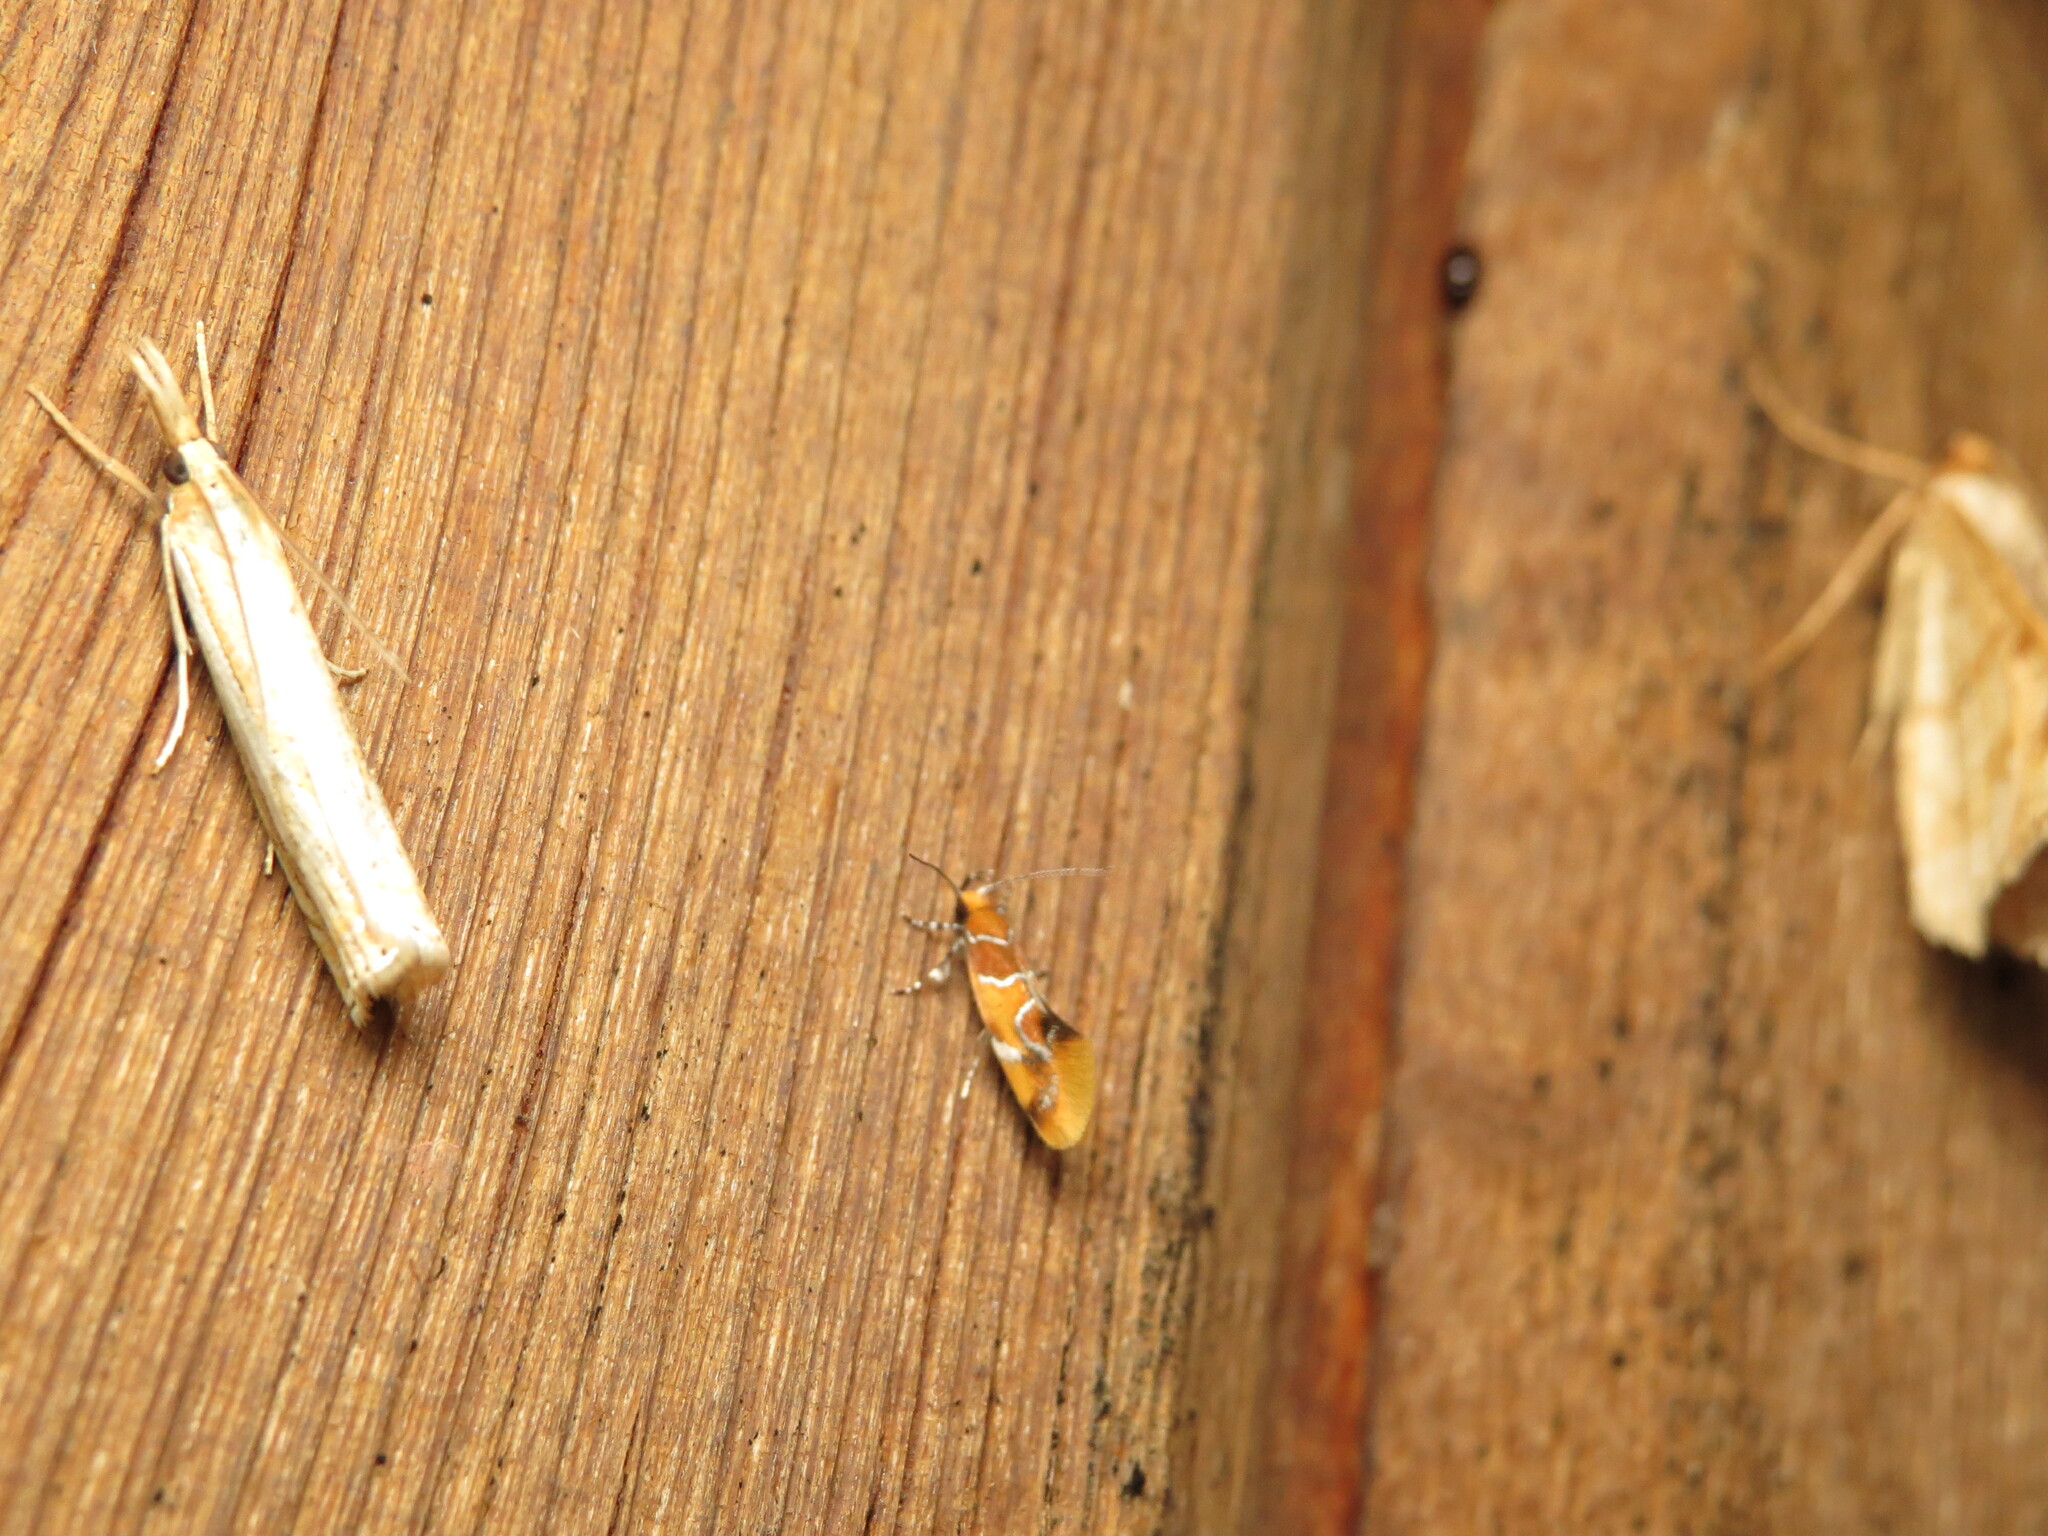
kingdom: Animalia
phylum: Arthropoda
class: Insecta
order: Lepidoptera
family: Oecophoridae
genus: Callima
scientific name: Callima argenticinctella
